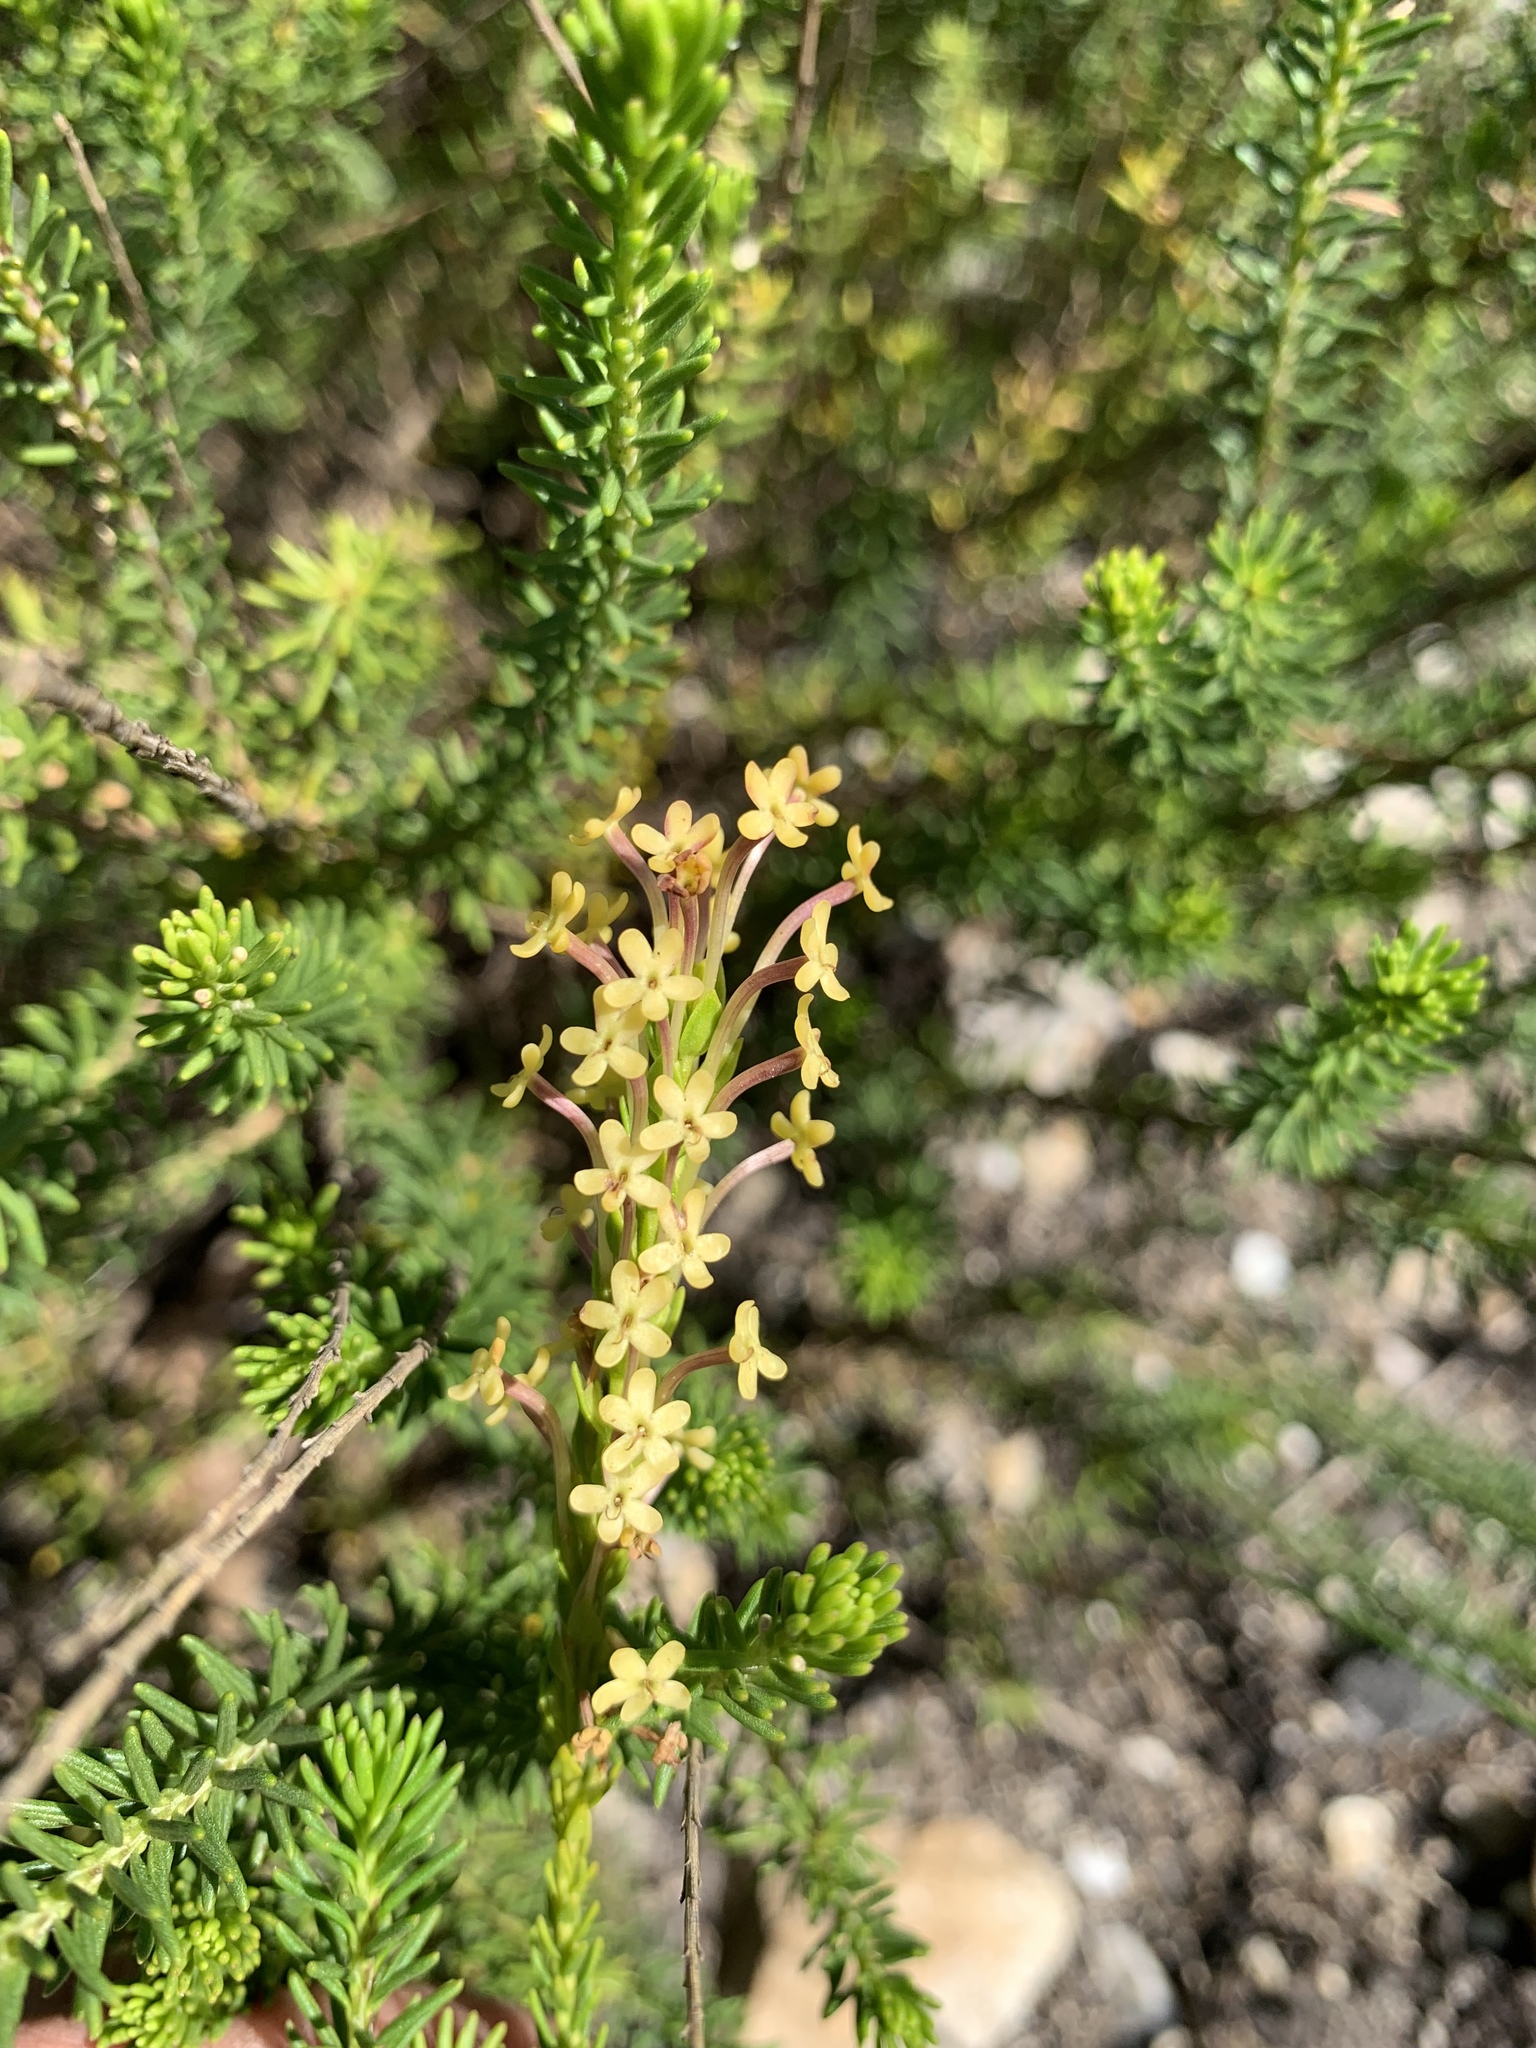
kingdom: Plantae
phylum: Tracheophyta
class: Magnoliopsida
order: Lamiales
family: Scrophulariaceae
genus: Microdon
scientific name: Microdon dubius
